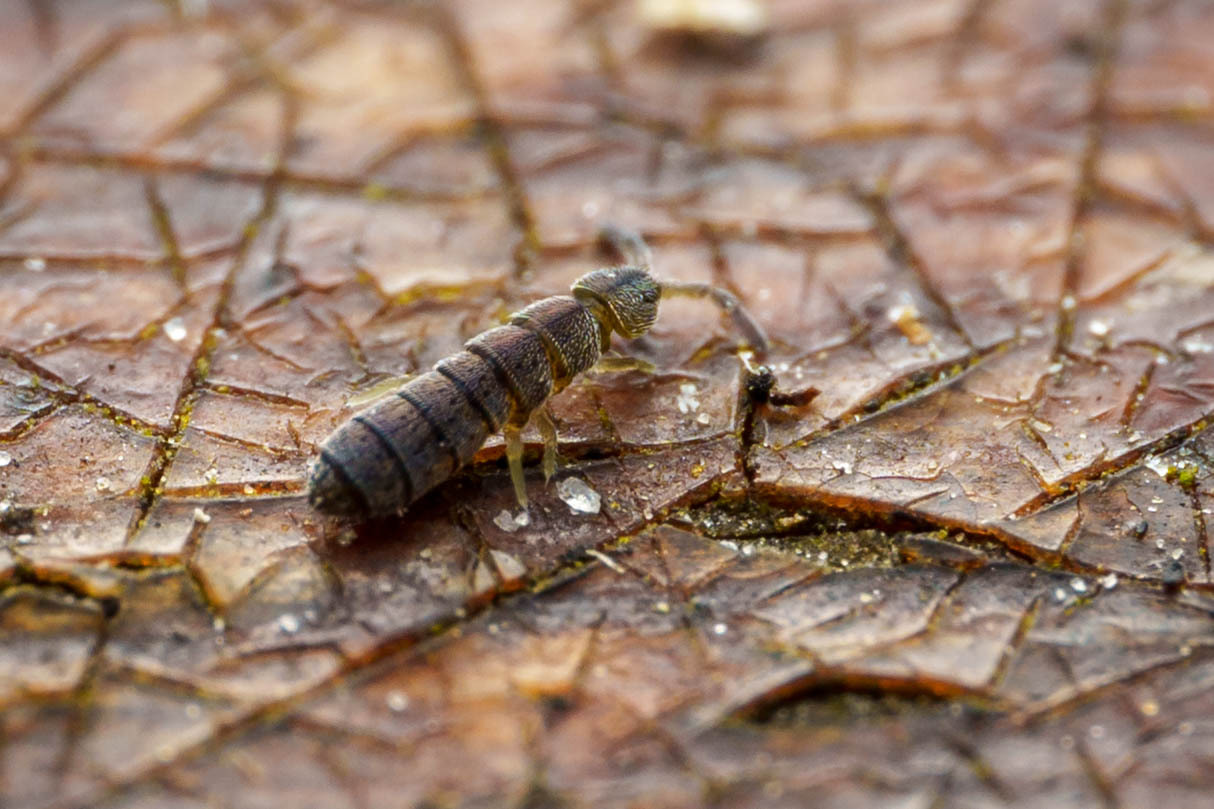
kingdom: Animalia
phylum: Arthropoda
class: Collembola
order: Entomobryomorpha
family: Isotomidae
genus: Vertagopus
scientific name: Vertagopus asiaticus
